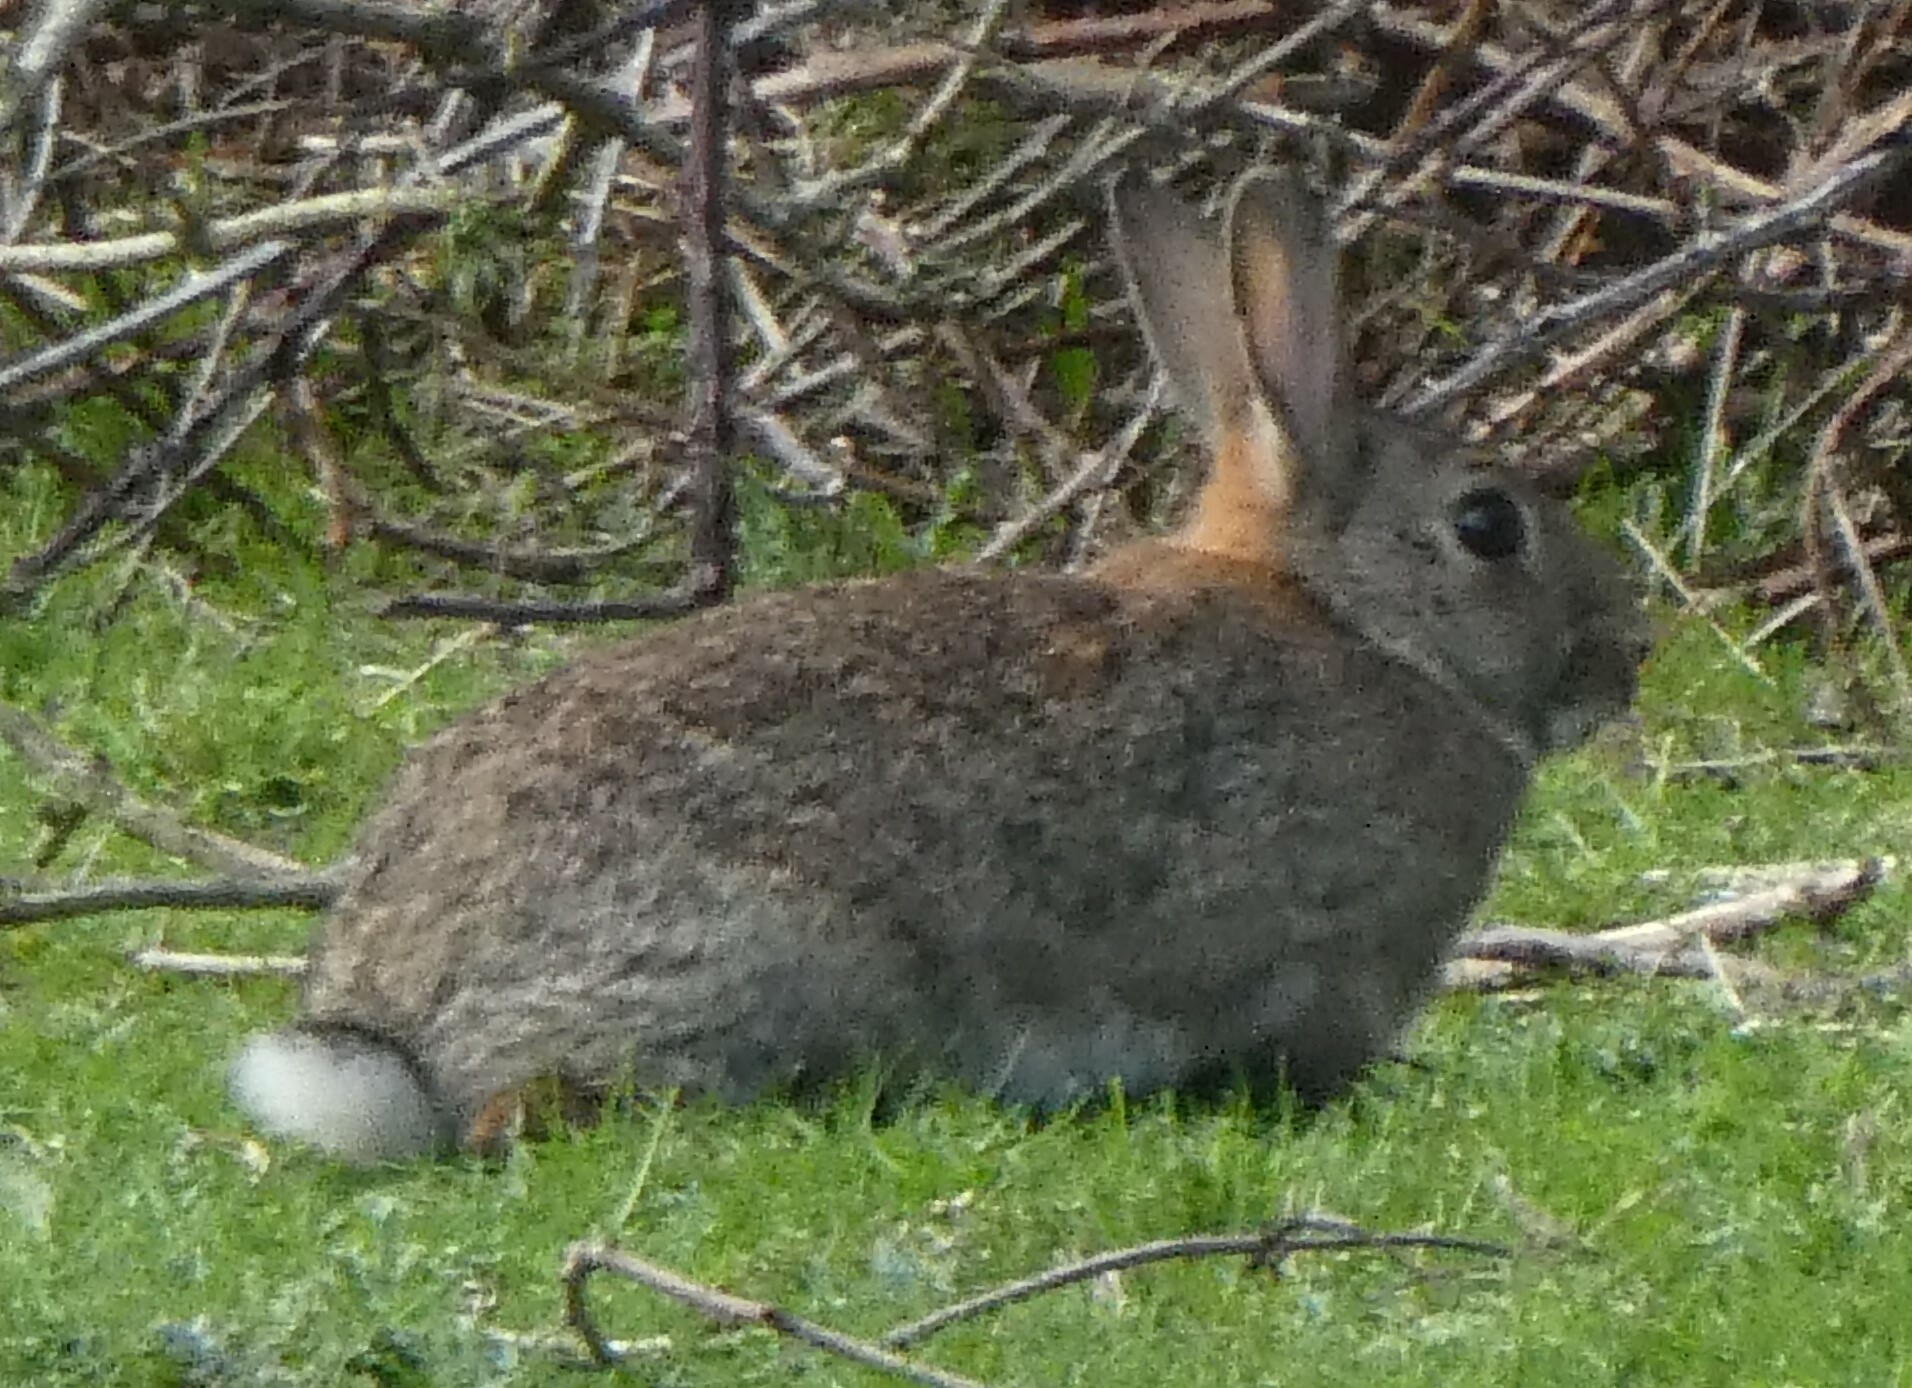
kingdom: Animalia
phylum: Chordata
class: Mammalia
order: Lagomorpha
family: Leporidae
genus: Oryctolagus
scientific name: Oryctolagus cuniculus
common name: European rabbit
